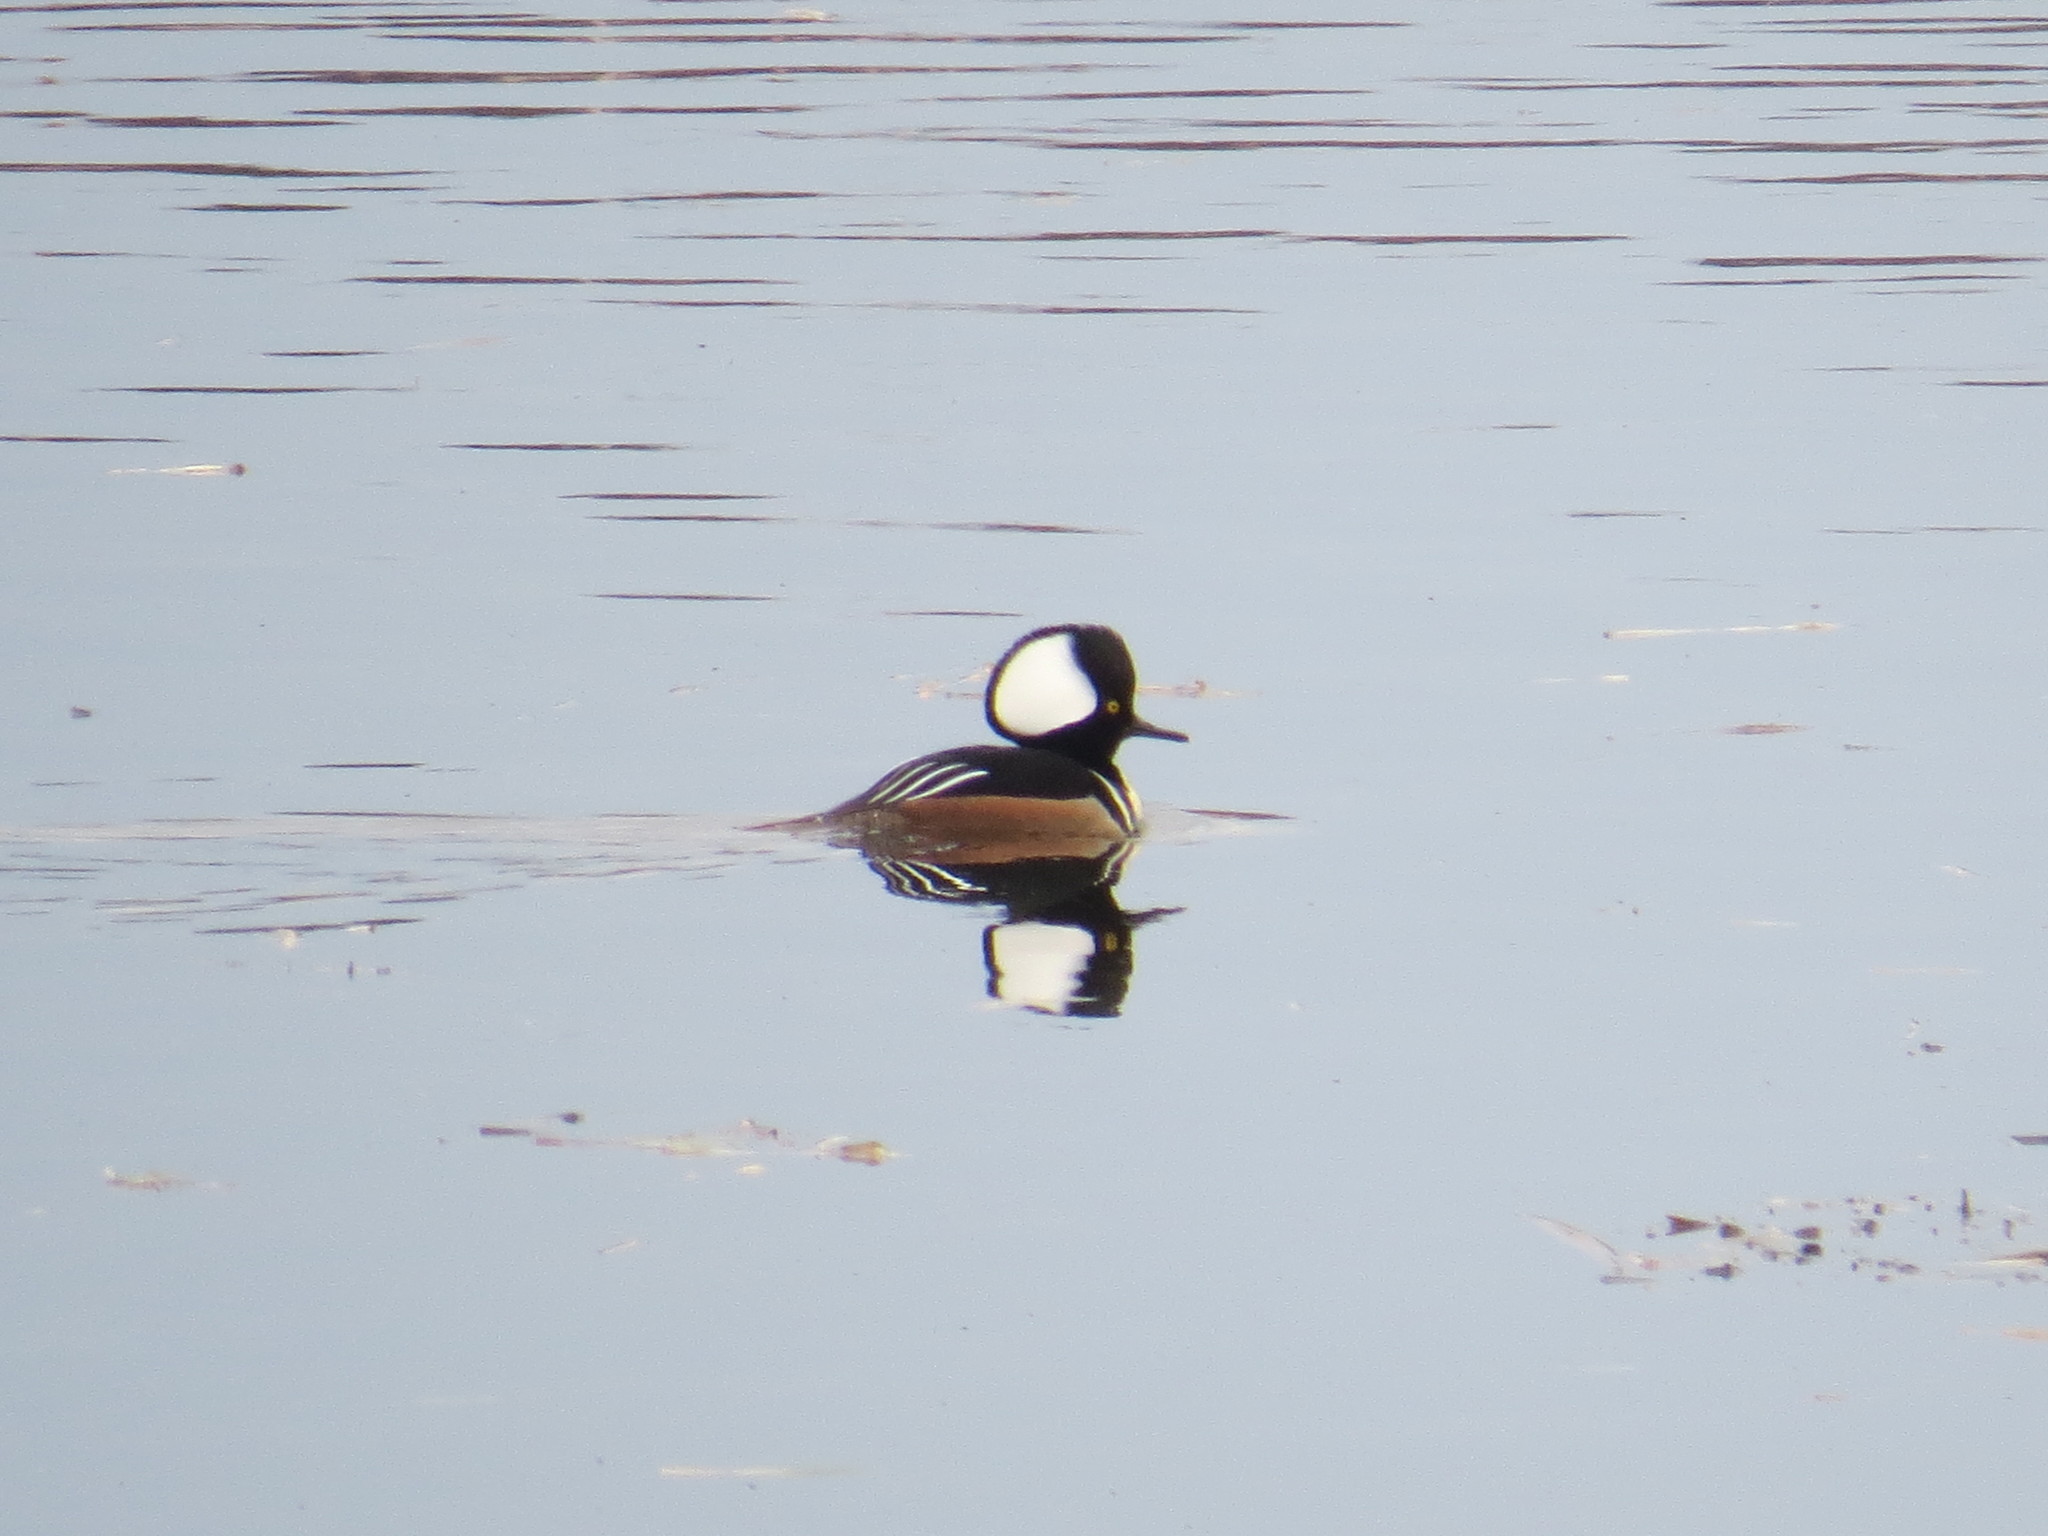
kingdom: Animalia
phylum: Chordata
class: Aves
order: Anseriformes
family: Anatidae
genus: Lophodytes
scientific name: Lophodytes cucullatus
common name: Hooded merganser
